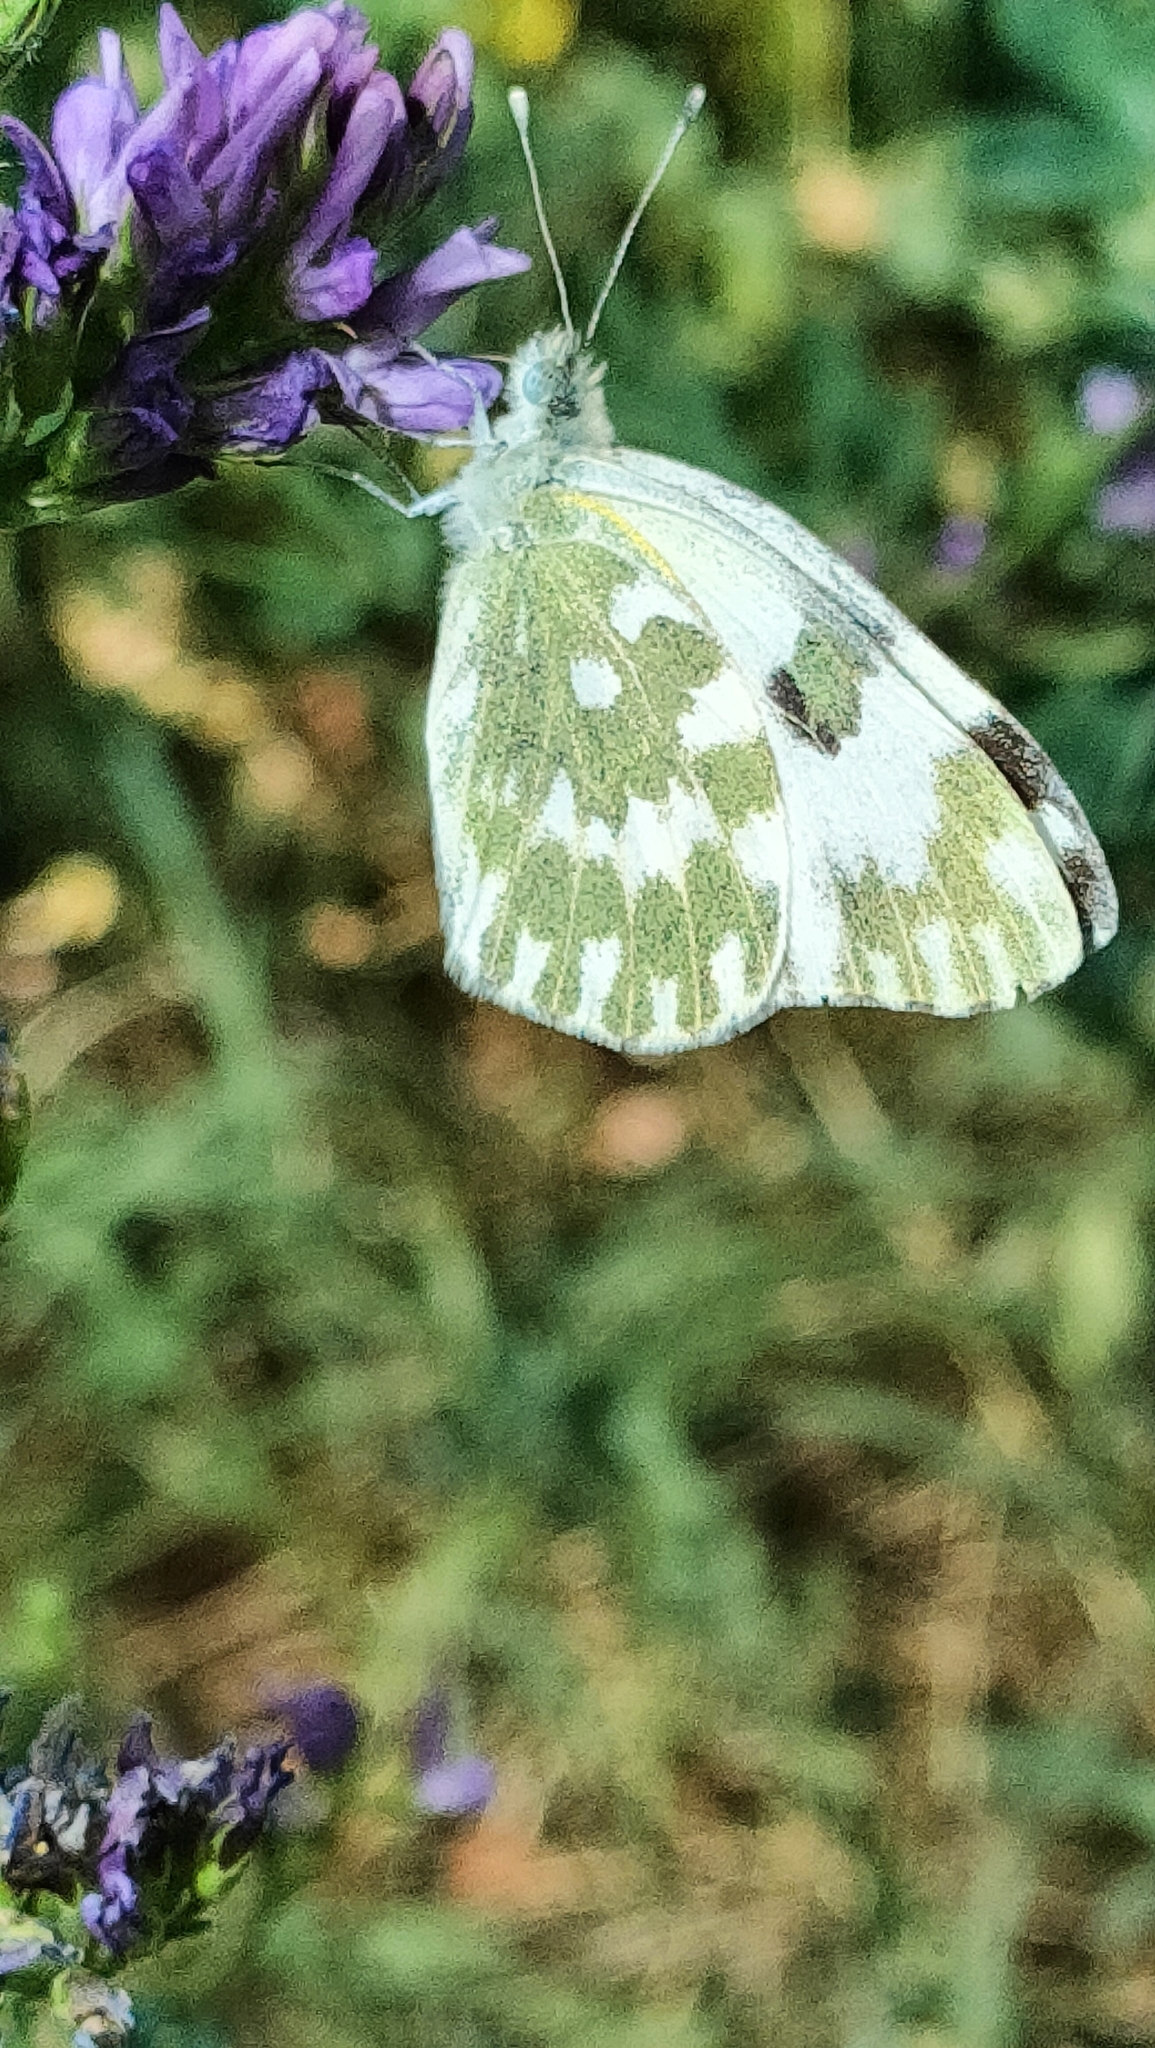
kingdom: Animalia
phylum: Arthropoda
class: Insecta
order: Lepidoptera
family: Pieridae
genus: Pontia
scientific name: Pontia edusa
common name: Eastern bath white
